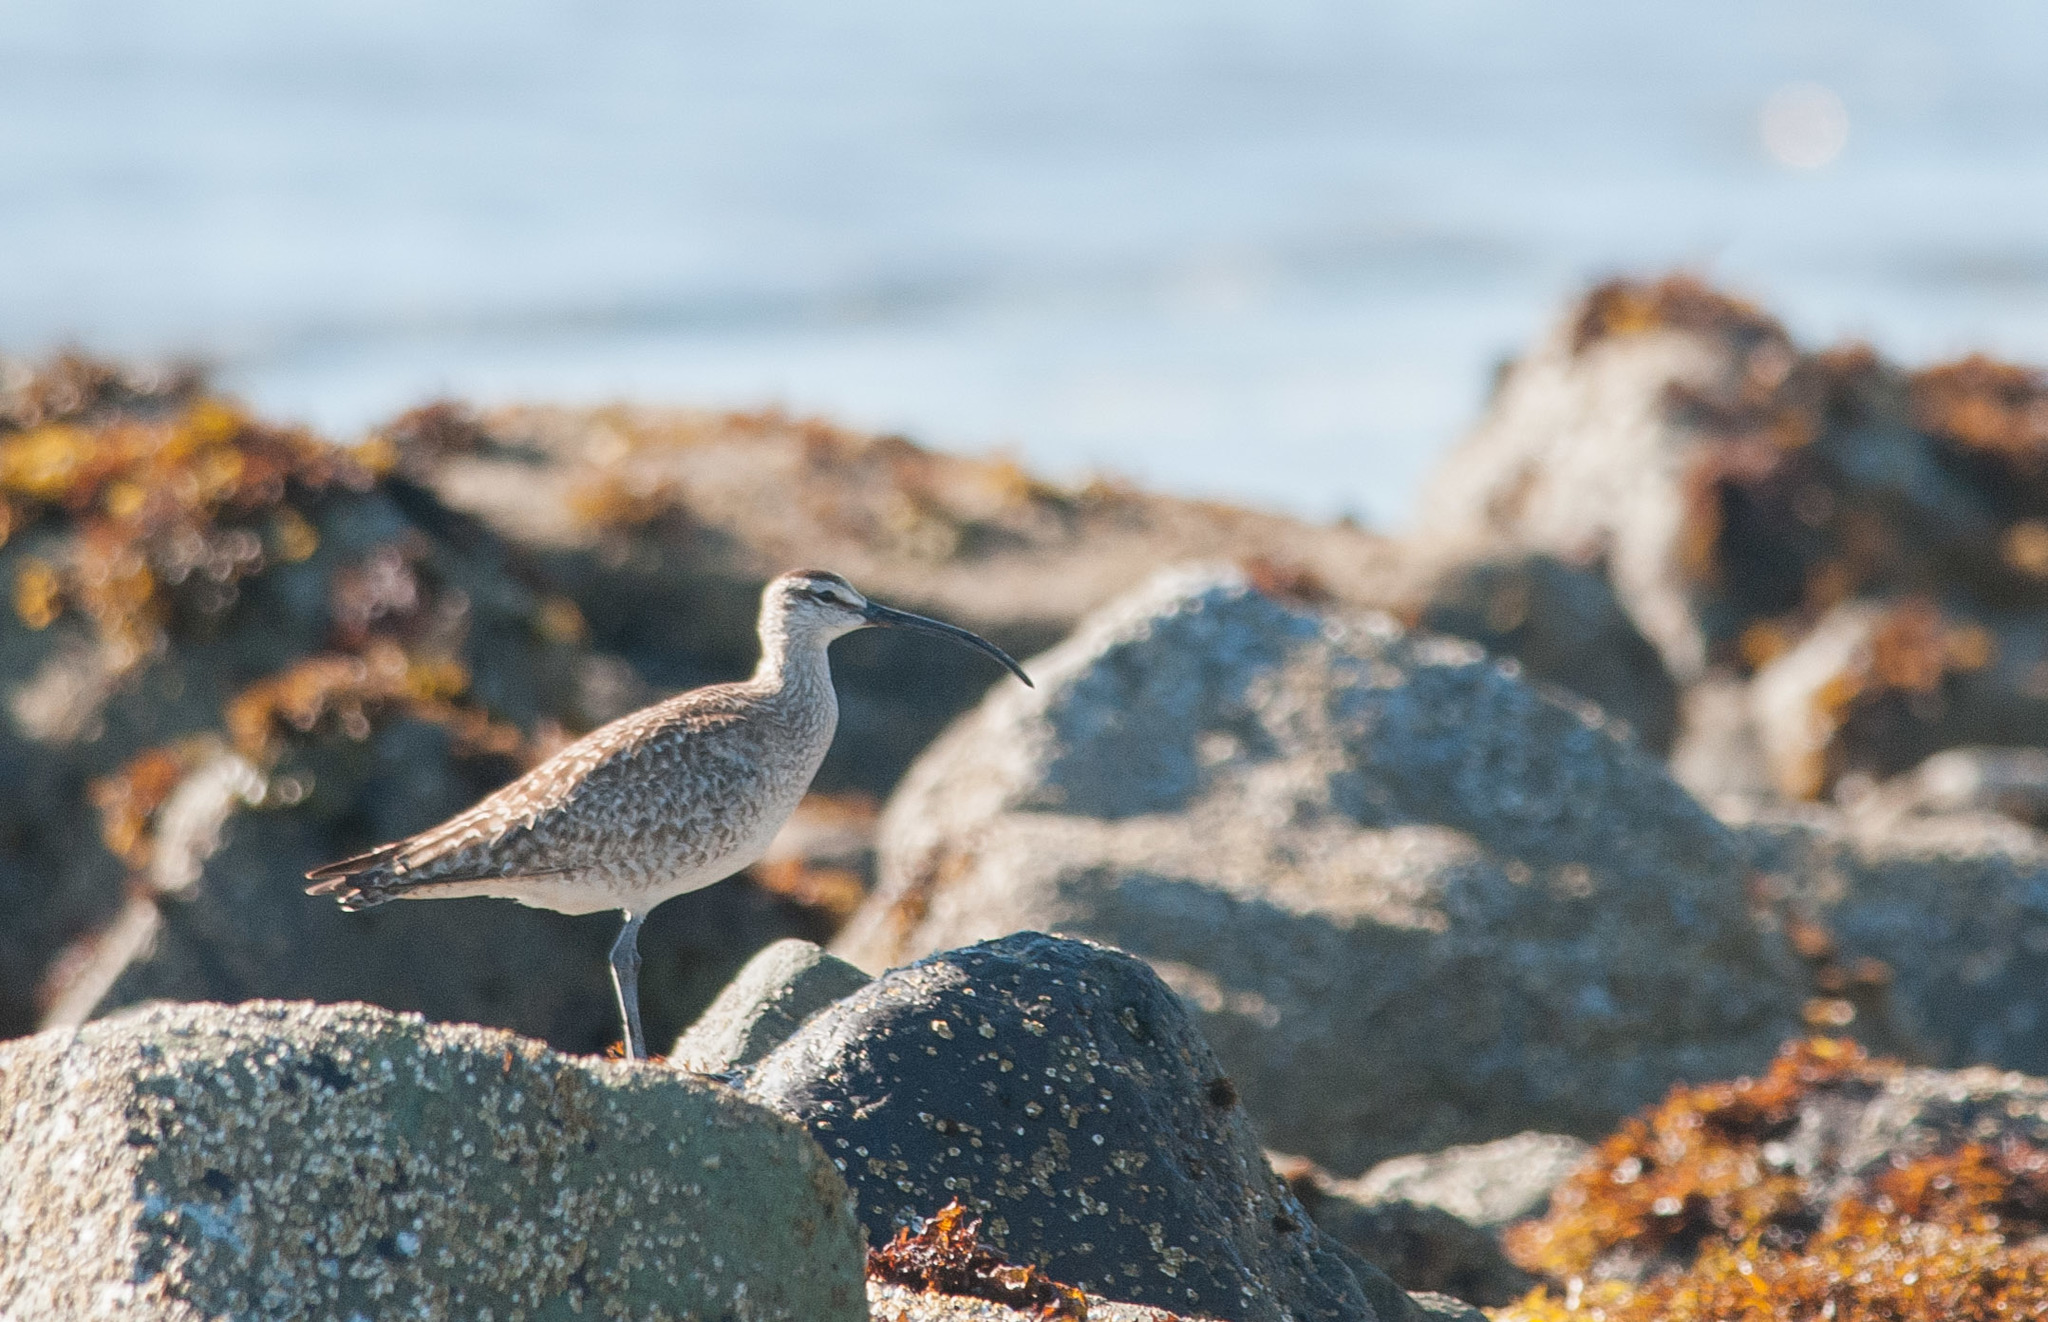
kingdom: Animalia
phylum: Chordata
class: Aves
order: Charadriiformes
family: Scolopacidae
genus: Numenius
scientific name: Numenius phaeopus
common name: Whimbrel
